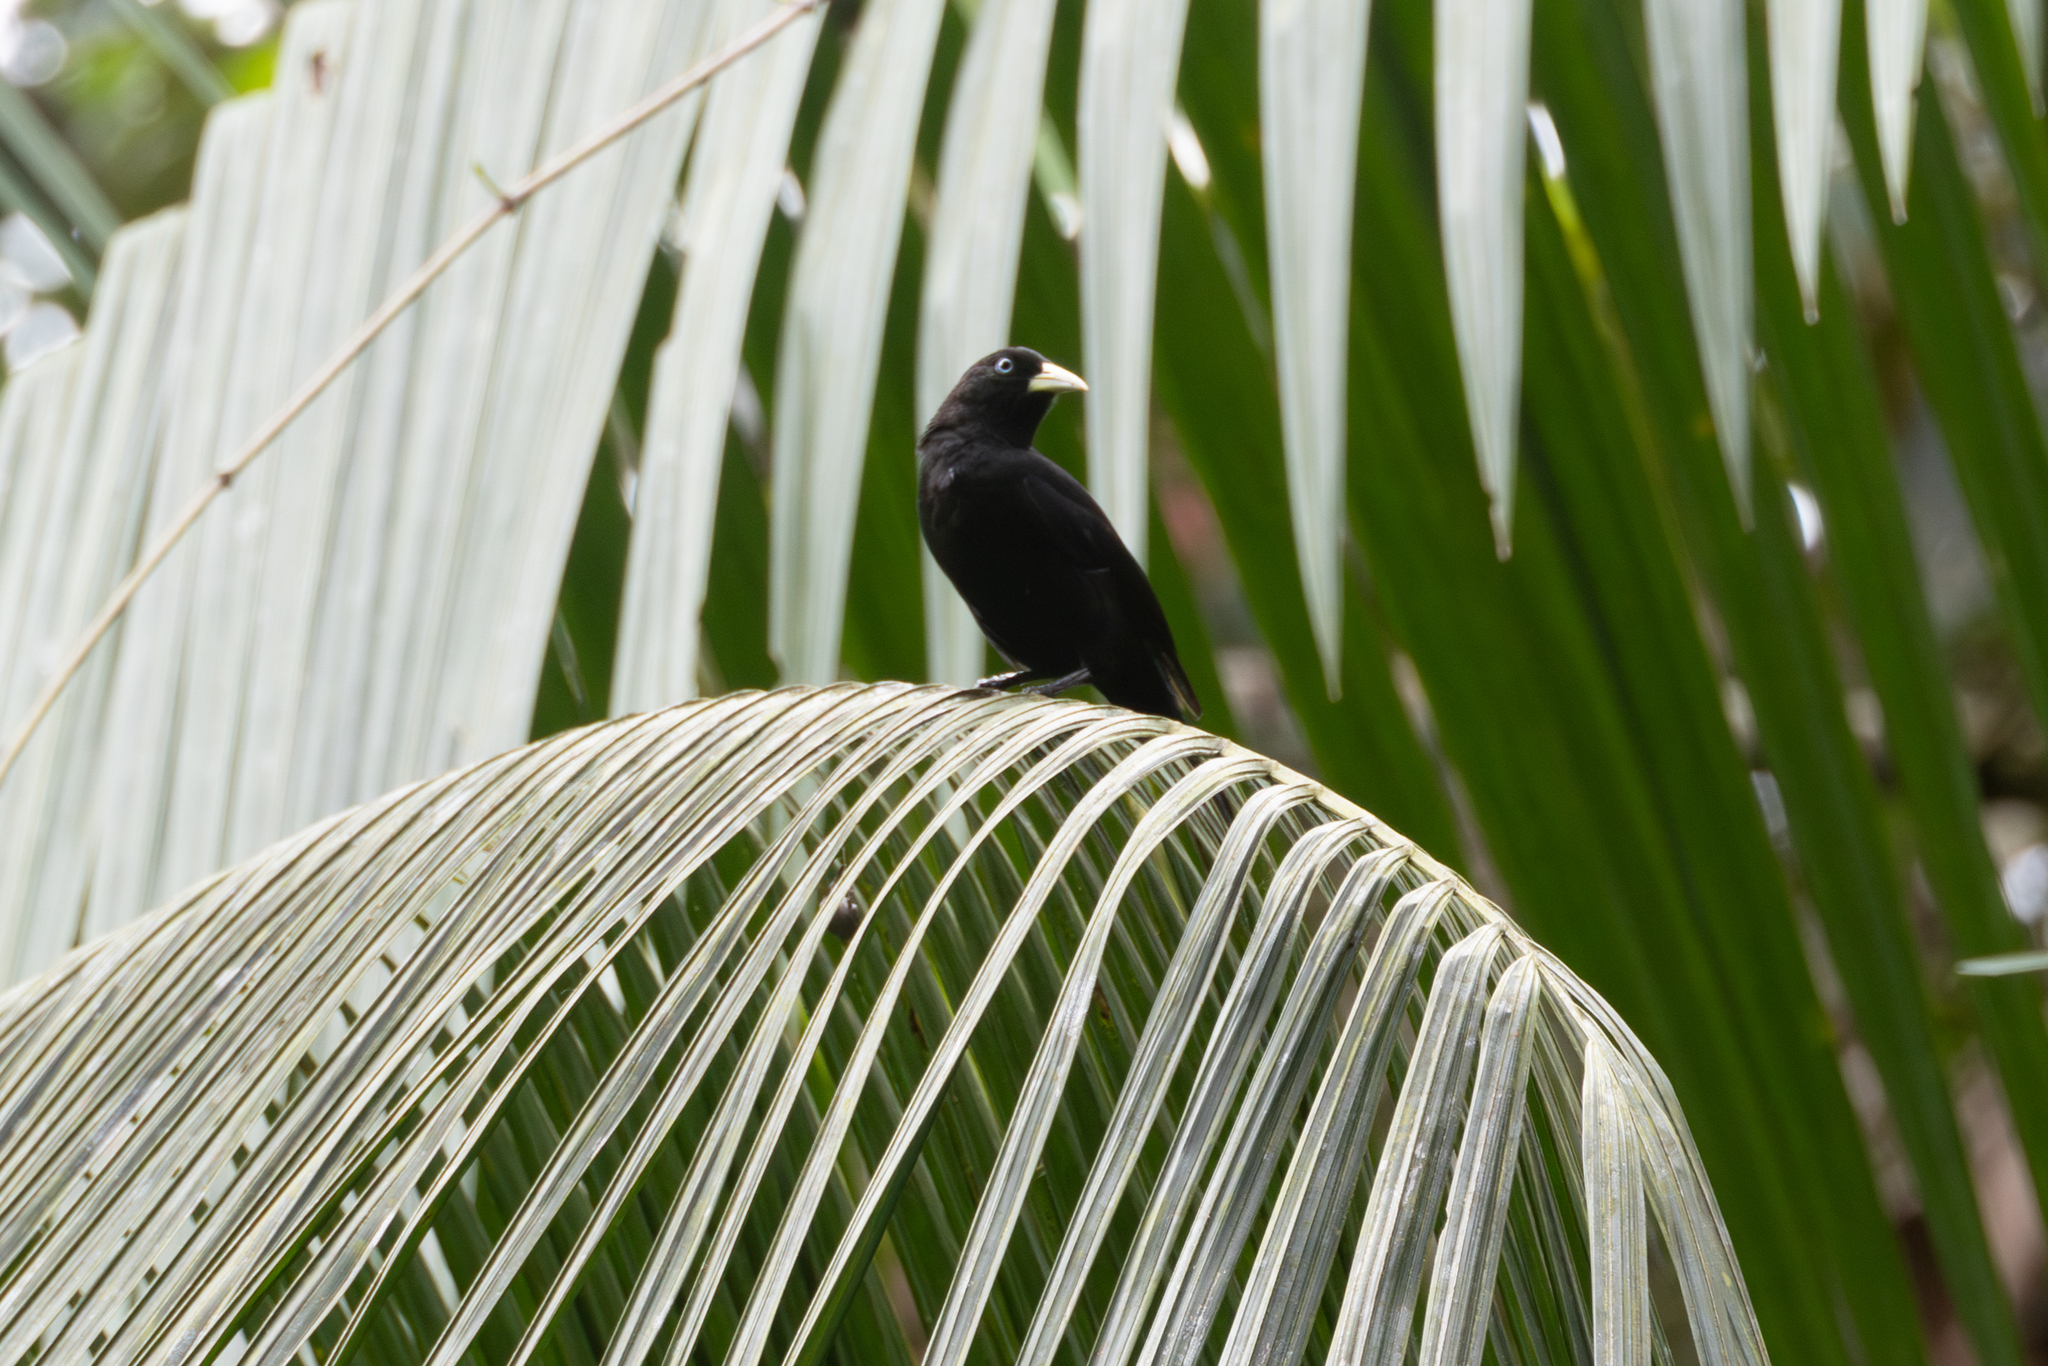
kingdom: Animalia
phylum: Chordata
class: Aves
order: Passeriformes
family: Icteridae
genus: Cacicus
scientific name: Cacicus uropygialis
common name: Scarlet-rumped cacique
